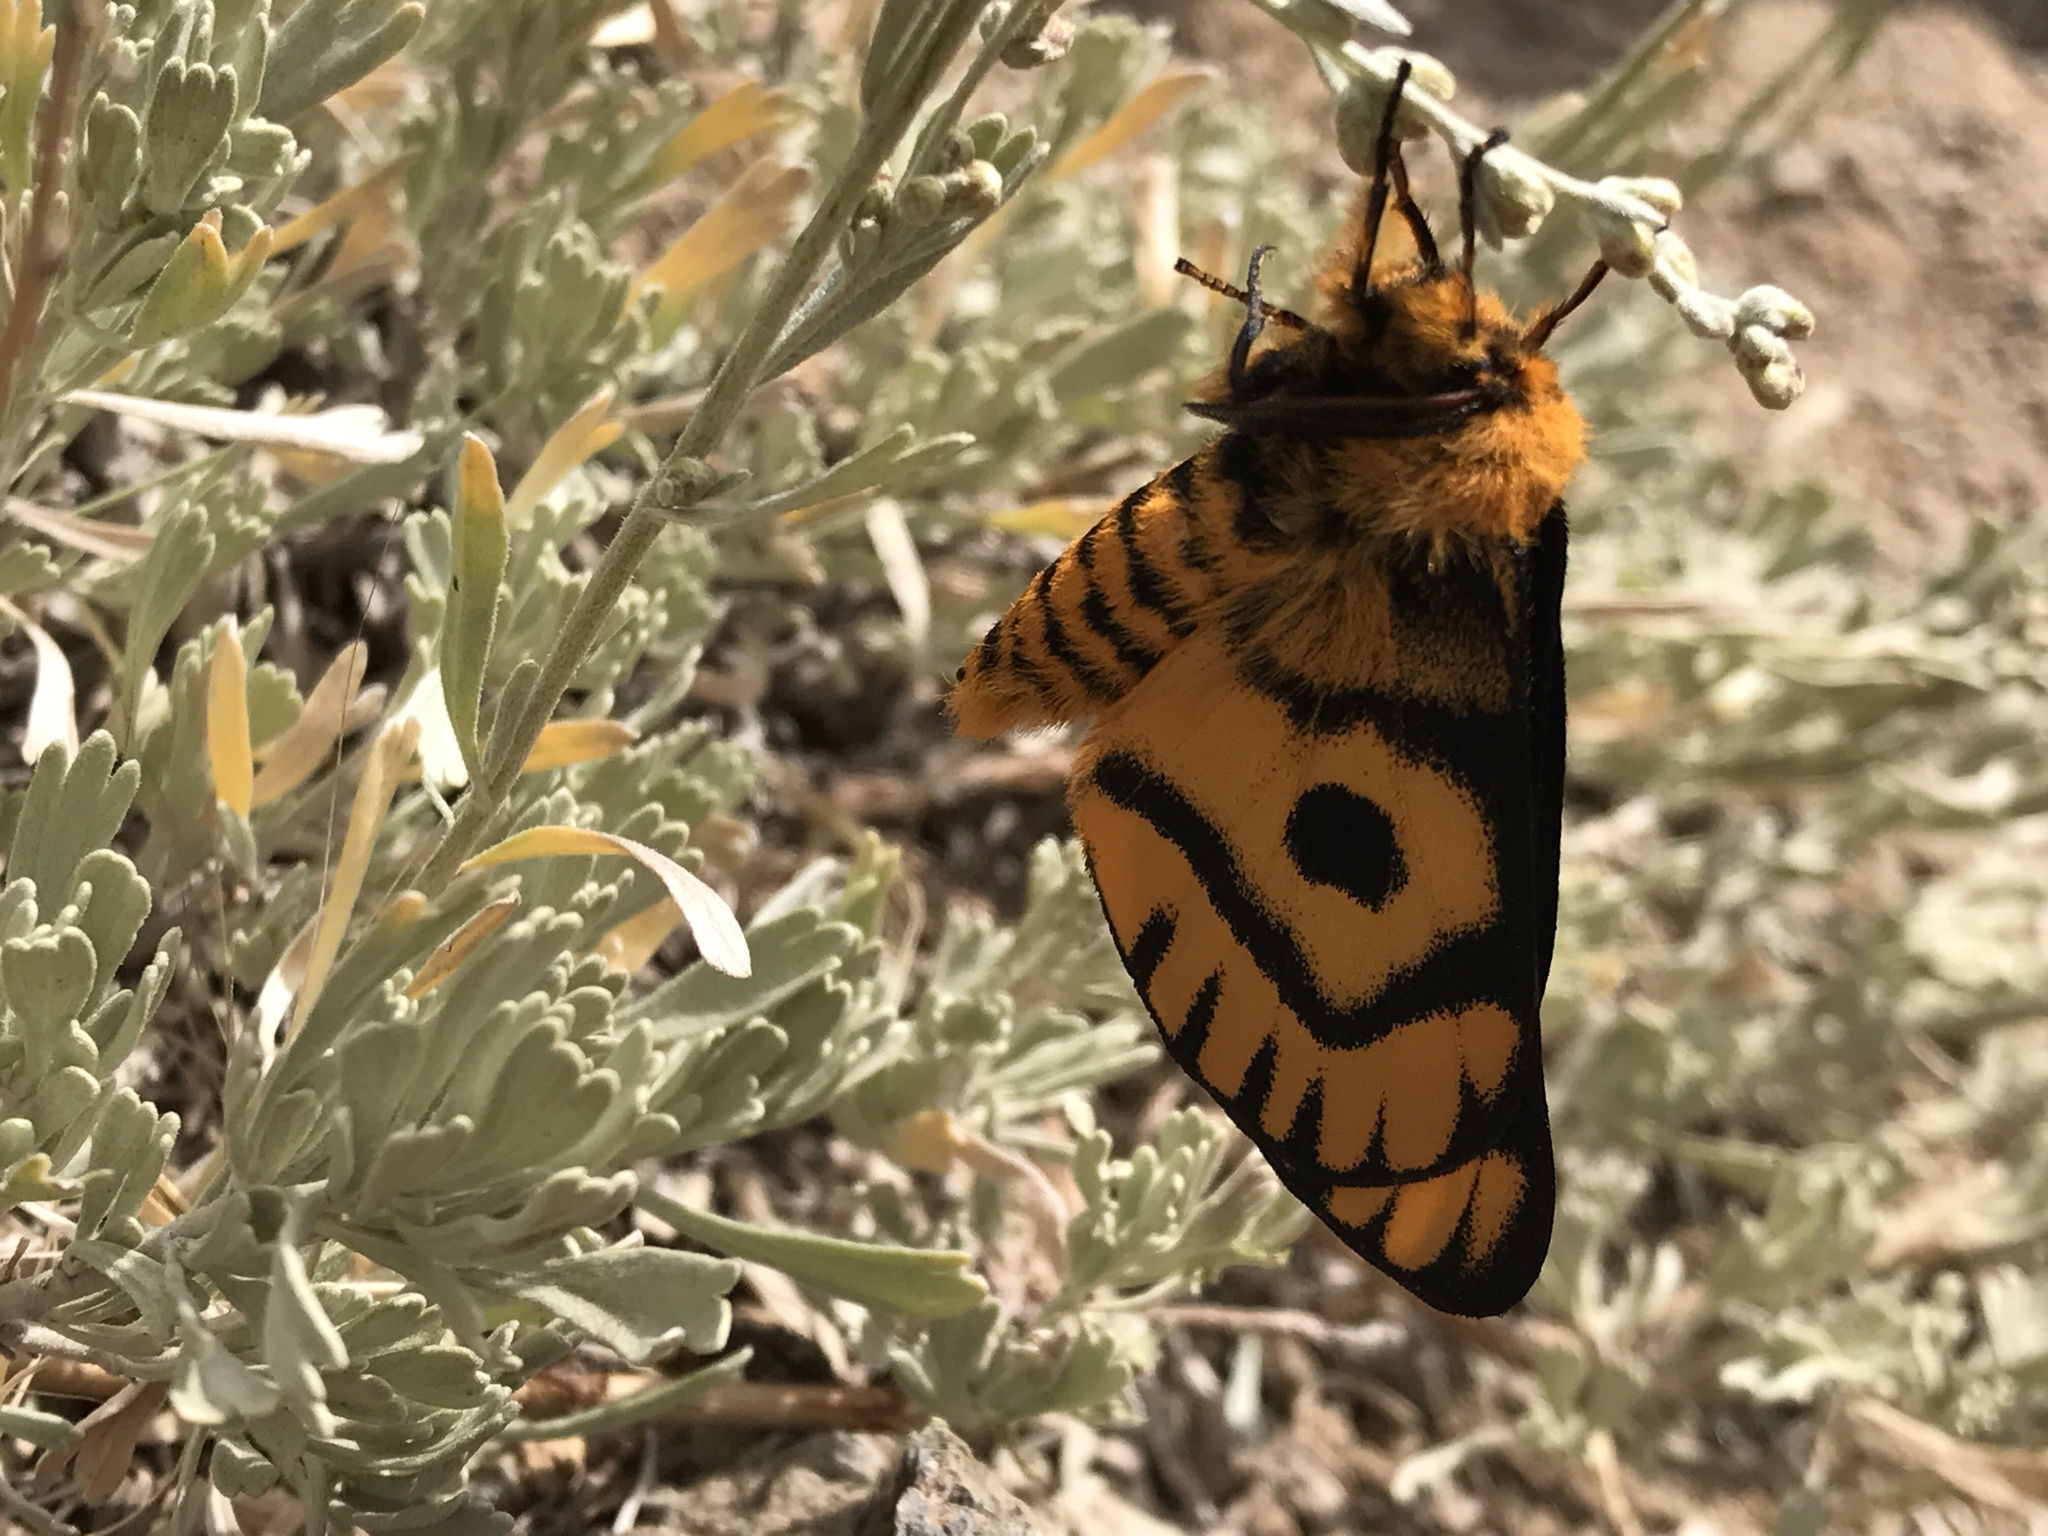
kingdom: Animalia
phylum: Arthropoda
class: Insecta
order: Lepidoptera
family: Saturniidae
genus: Hemileuca
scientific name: Hemileuca eglanterina
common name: Western sheepmoth
